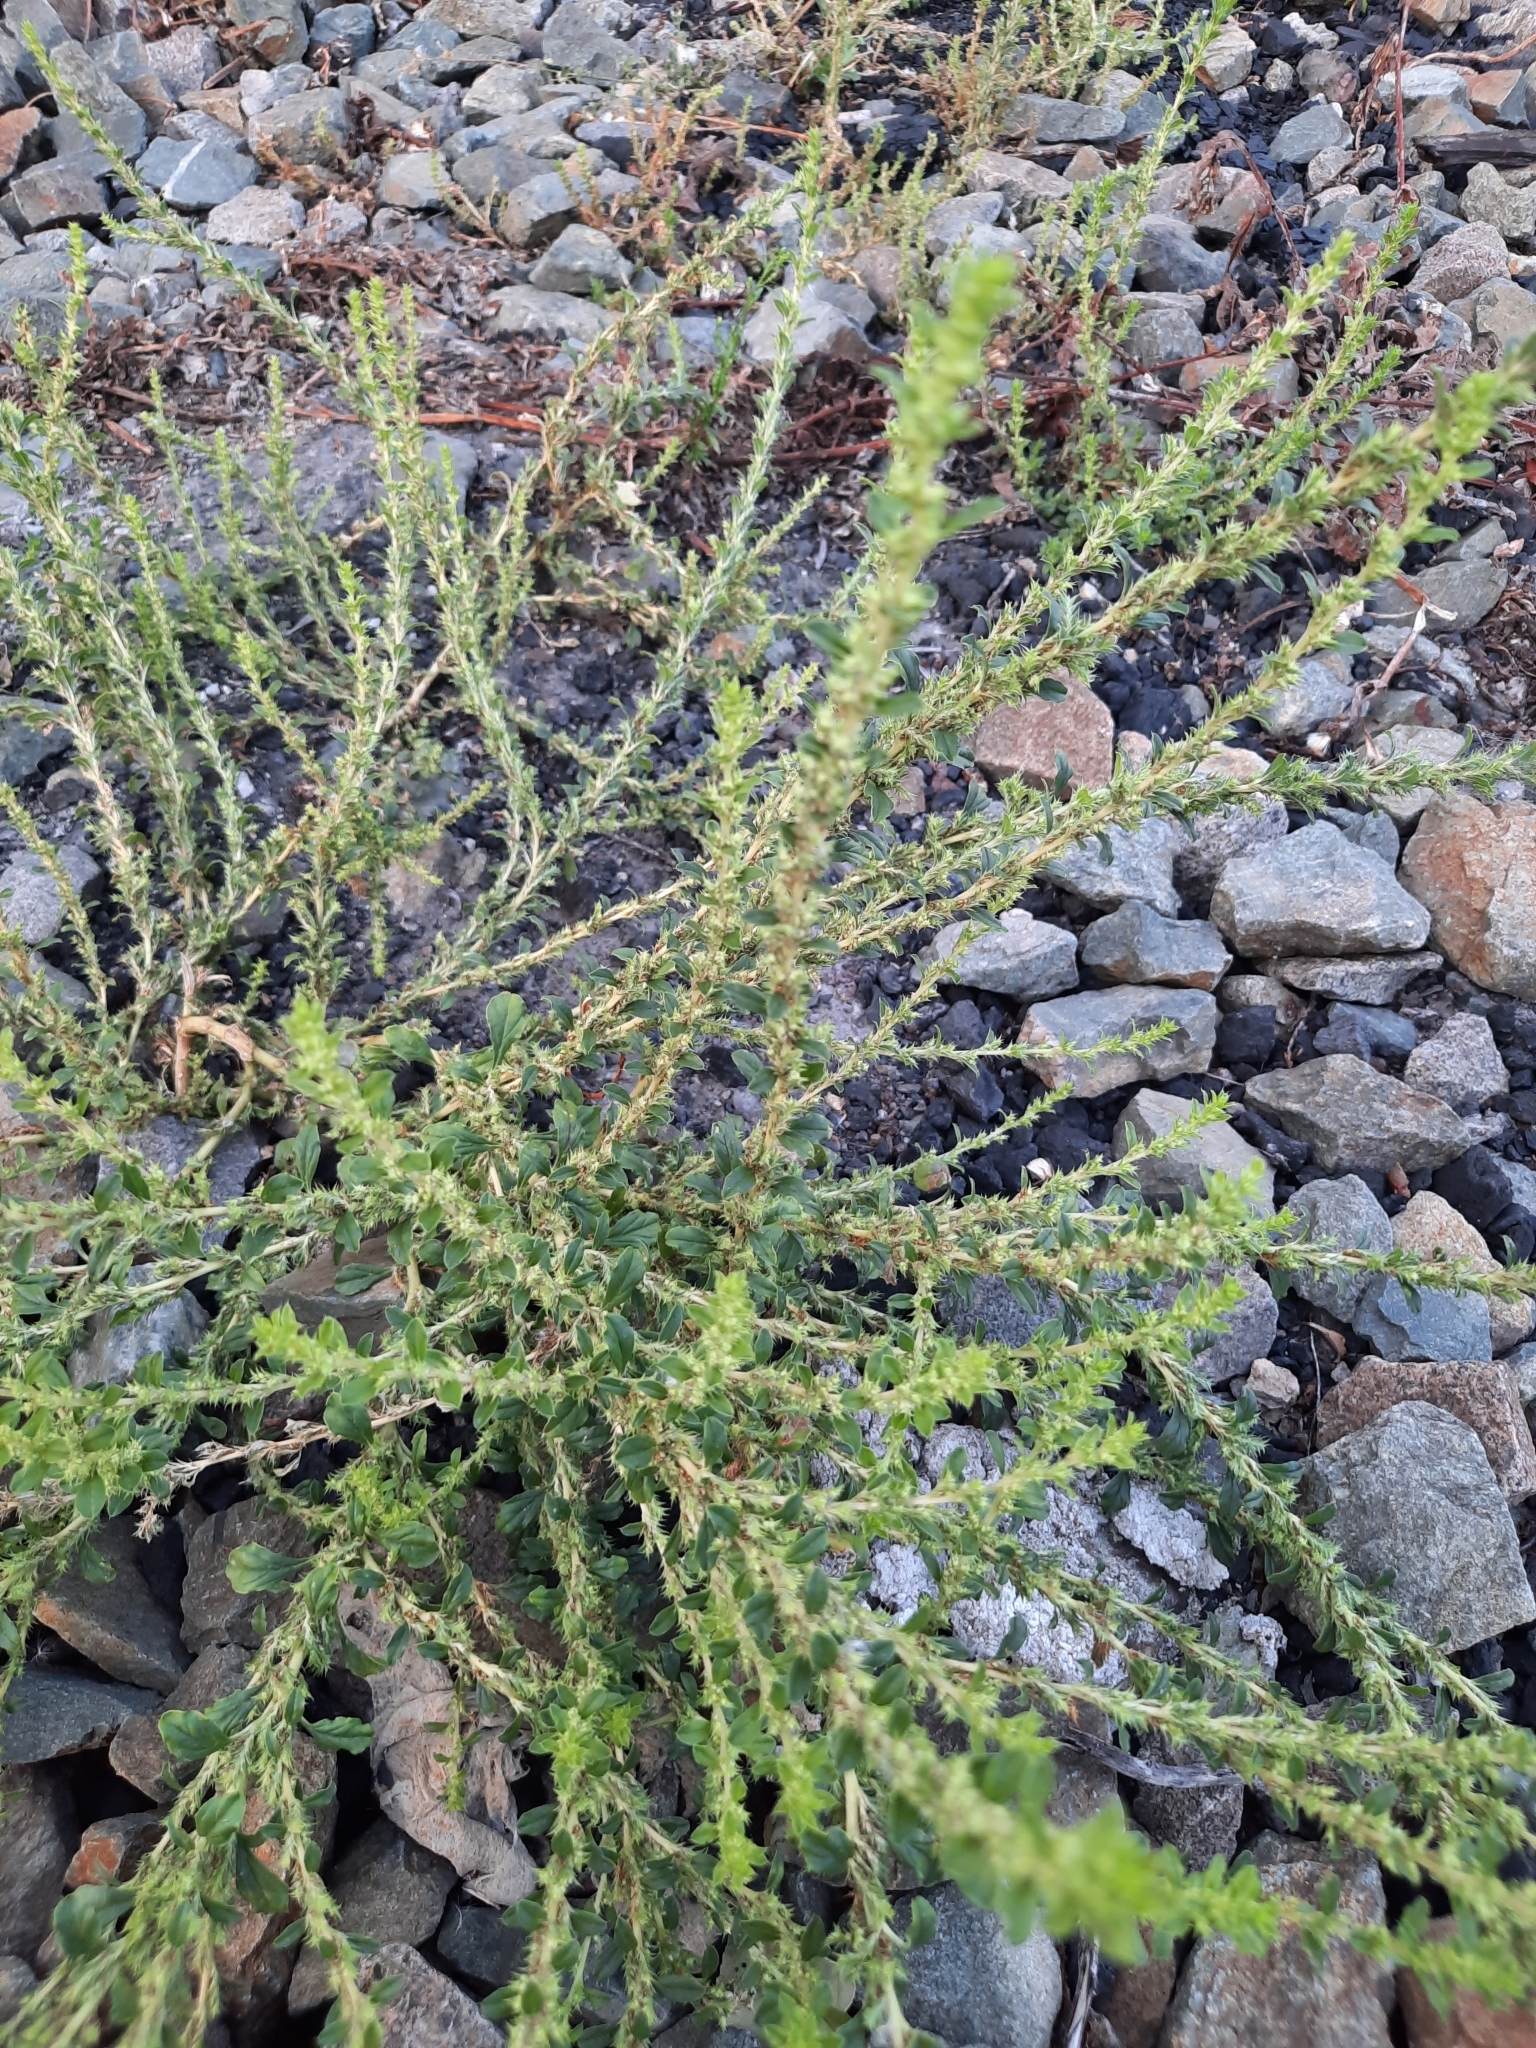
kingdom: Plantae
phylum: Tracheophyta
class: Magnoliopsida
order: Caryophyllales
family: Amaranthaceae
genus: Amaranthus
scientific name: Amaranthus albus
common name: White pigweed
